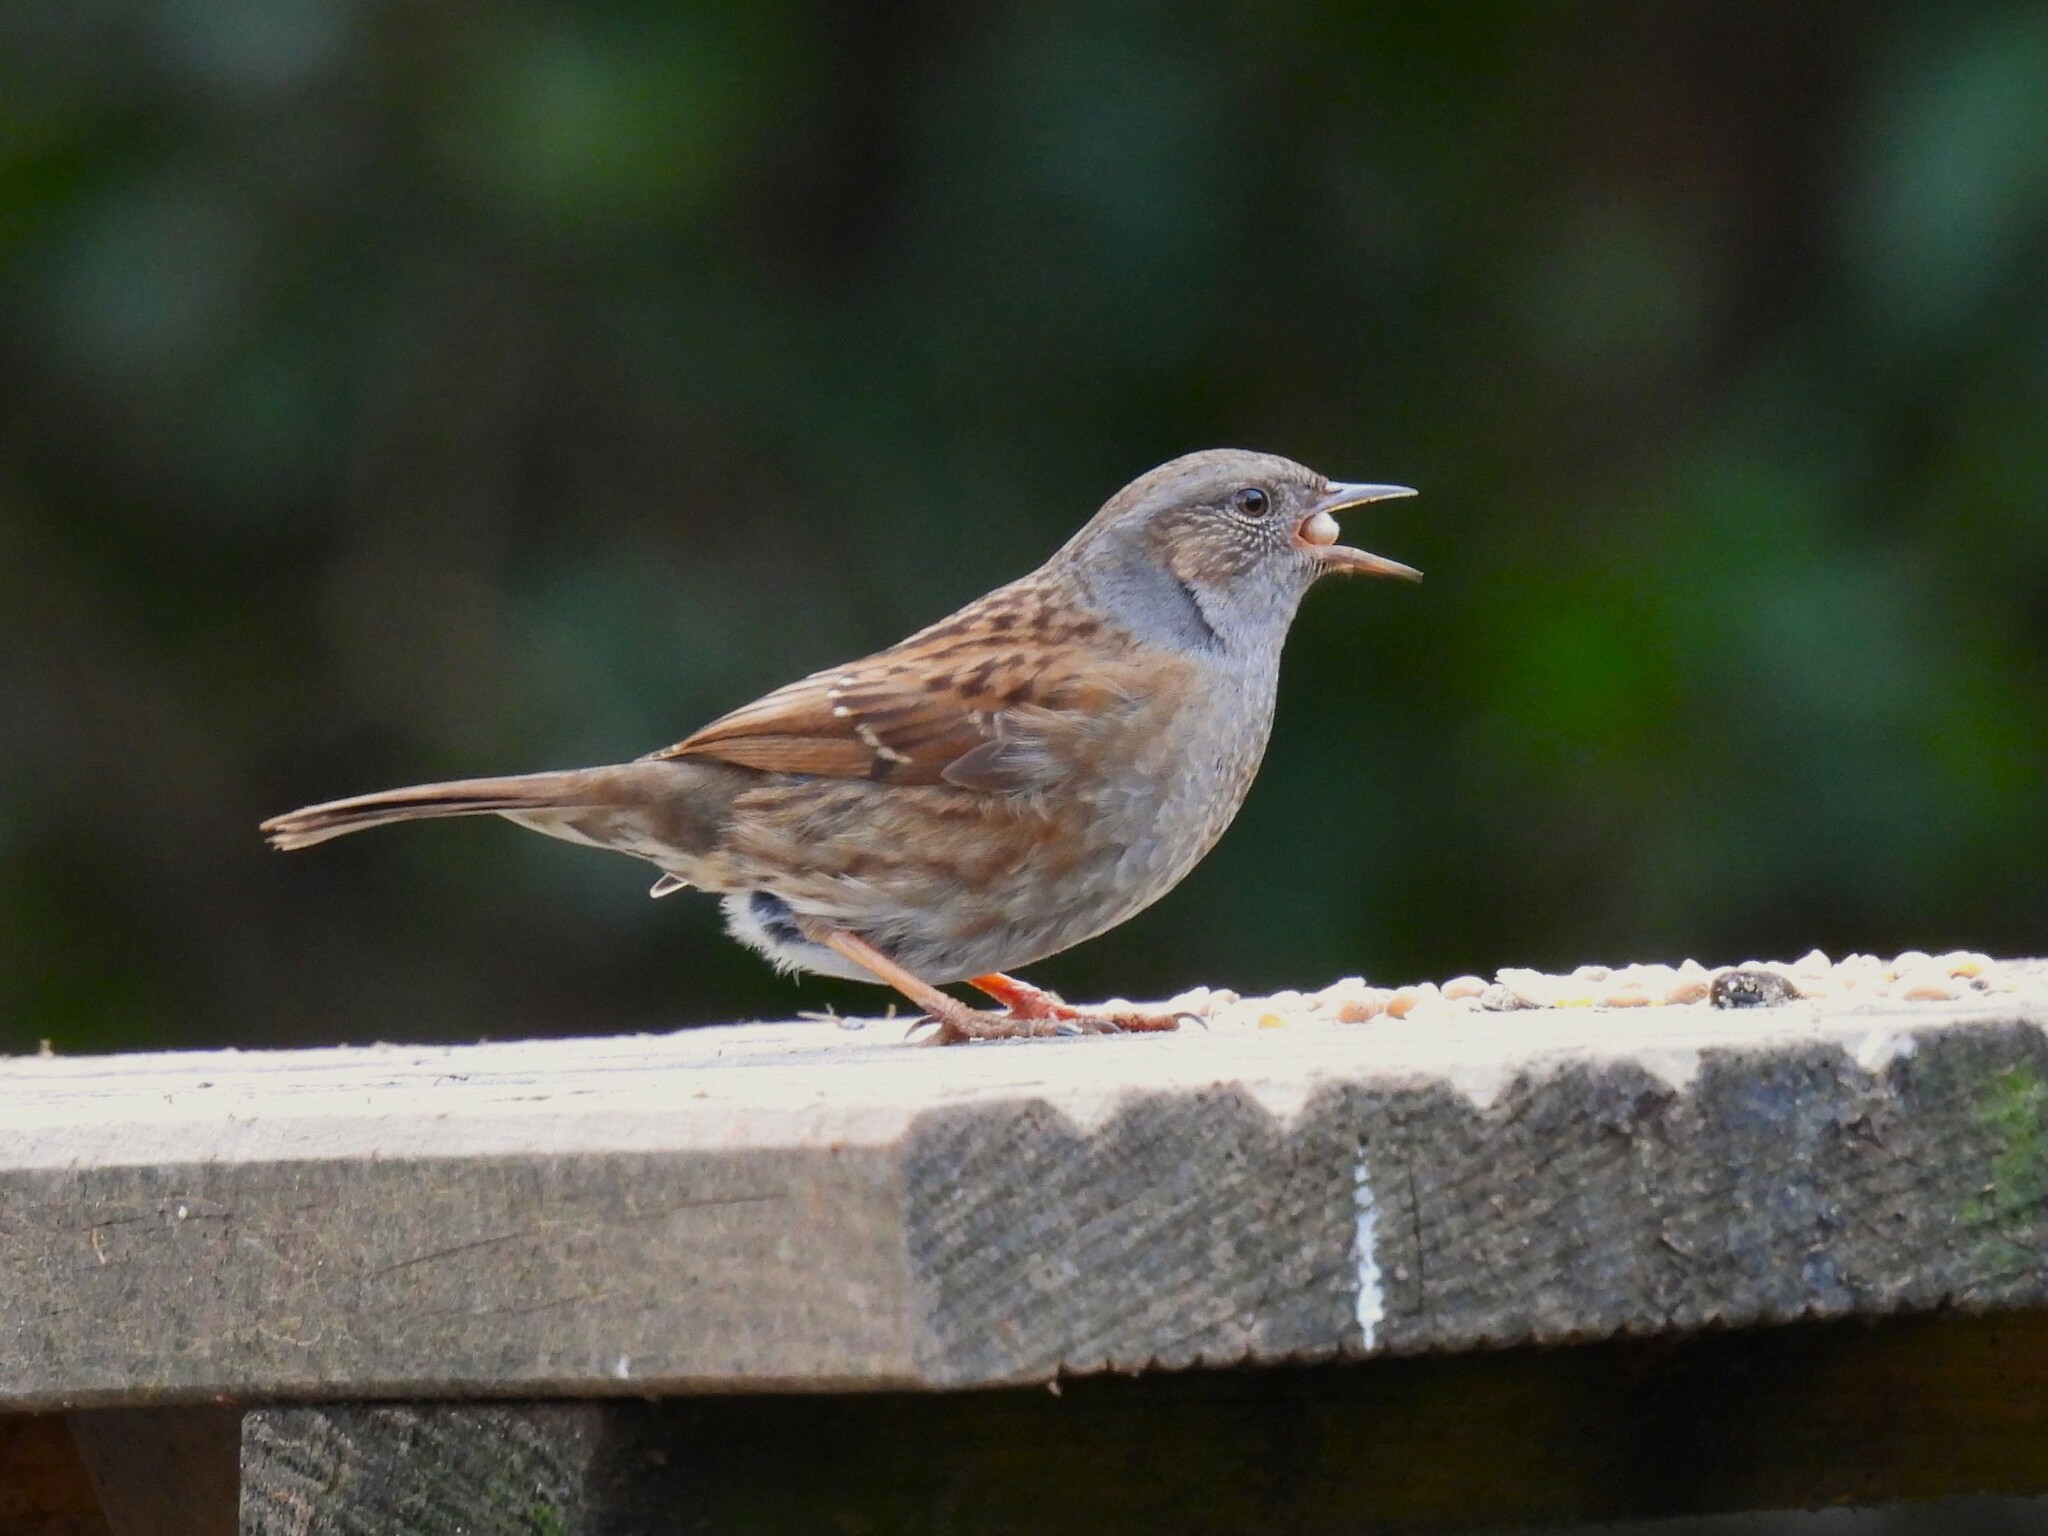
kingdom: Animalia
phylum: Chordata
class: Aves
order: Passeriformes
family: Prunellidae
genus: Prunella
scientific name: Prunella modularis
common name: Dunnock
